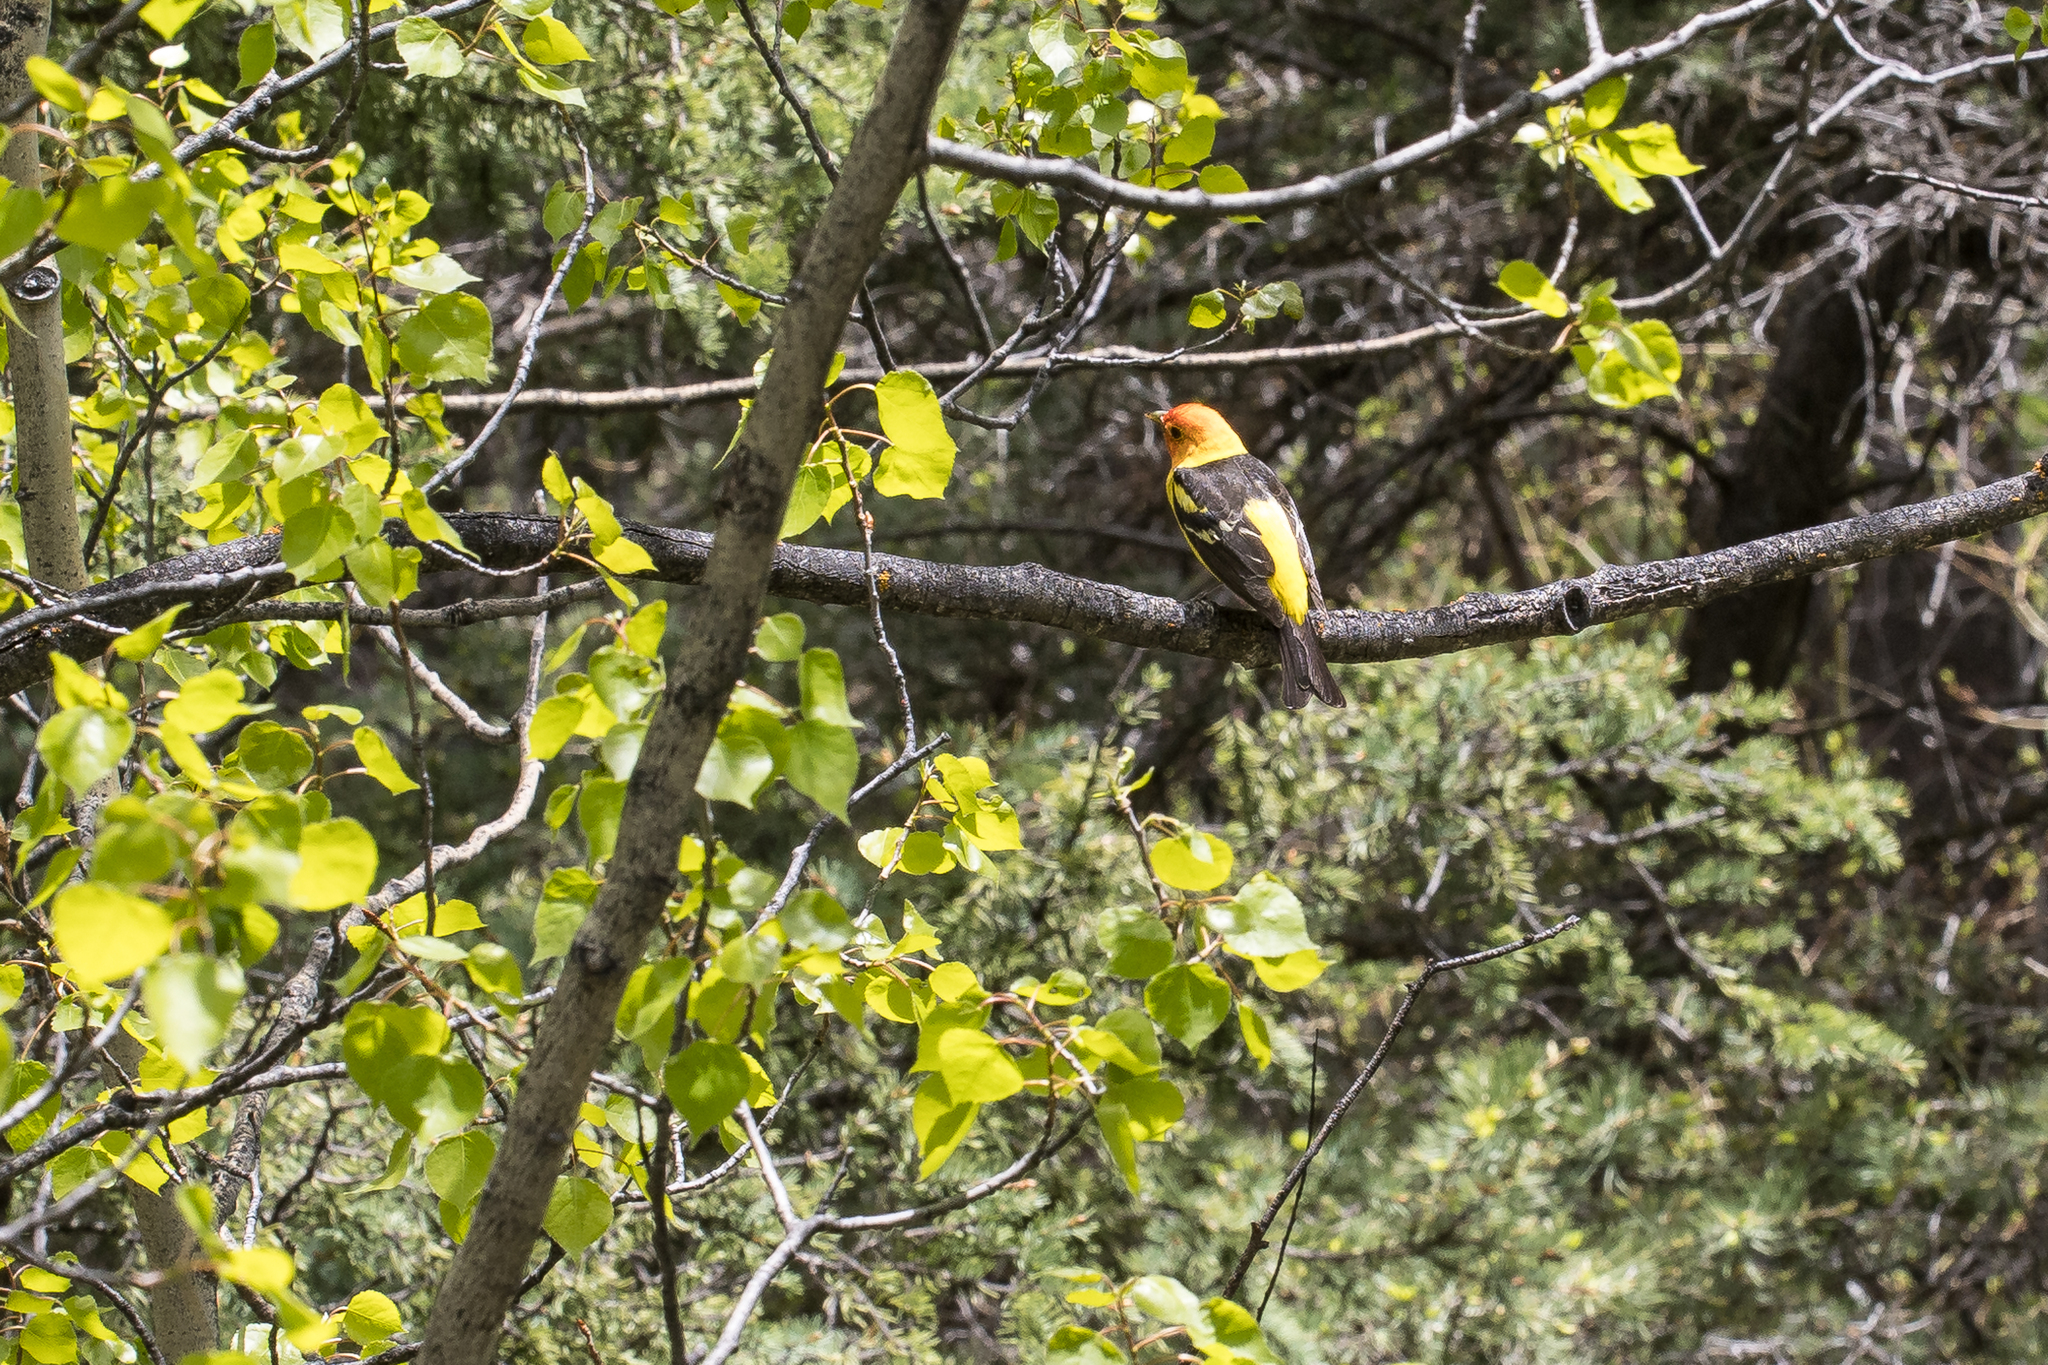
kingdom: Animalia
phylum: Chordata
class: Aves
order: Passeriformes
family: Cardinalidae
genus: Piranga
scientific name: Piranga ludoviciana
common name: Western tanager
